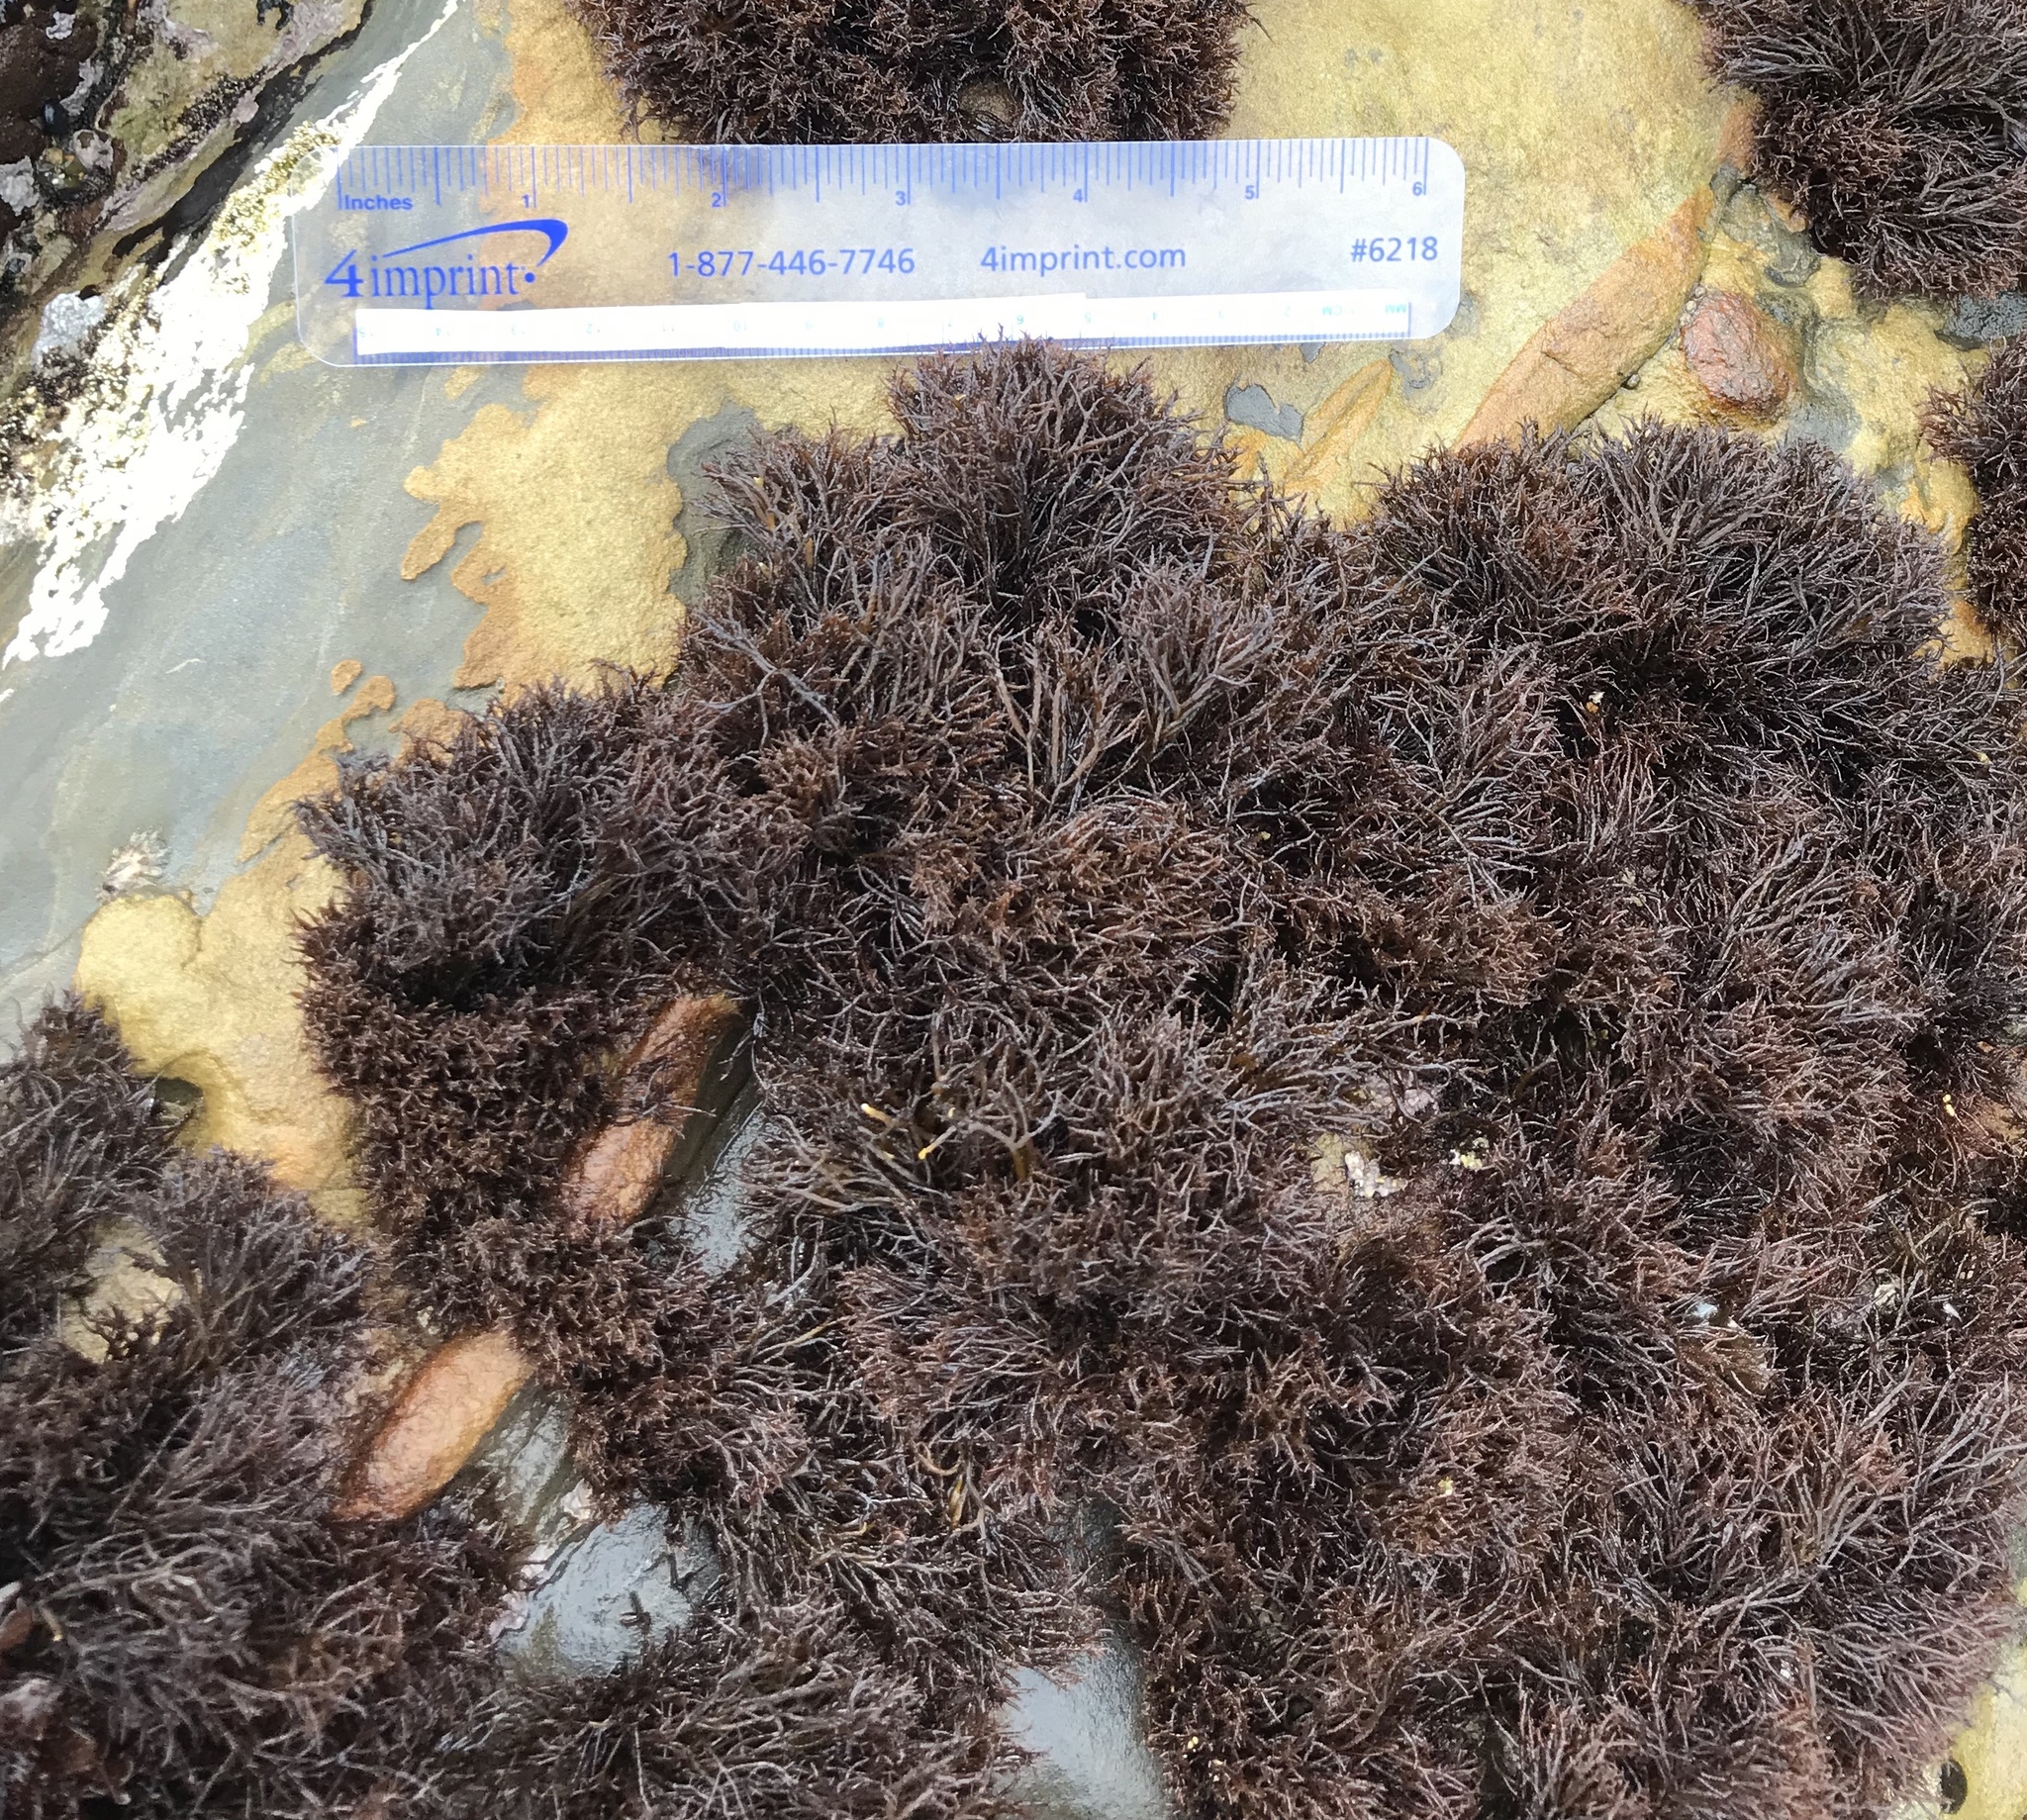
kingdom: Plantae
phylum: Rhodophyta
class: Florideophyceae
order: Gigartinales
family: Endocladiaceae
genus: Endocladia
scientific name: Endocladia muricata
